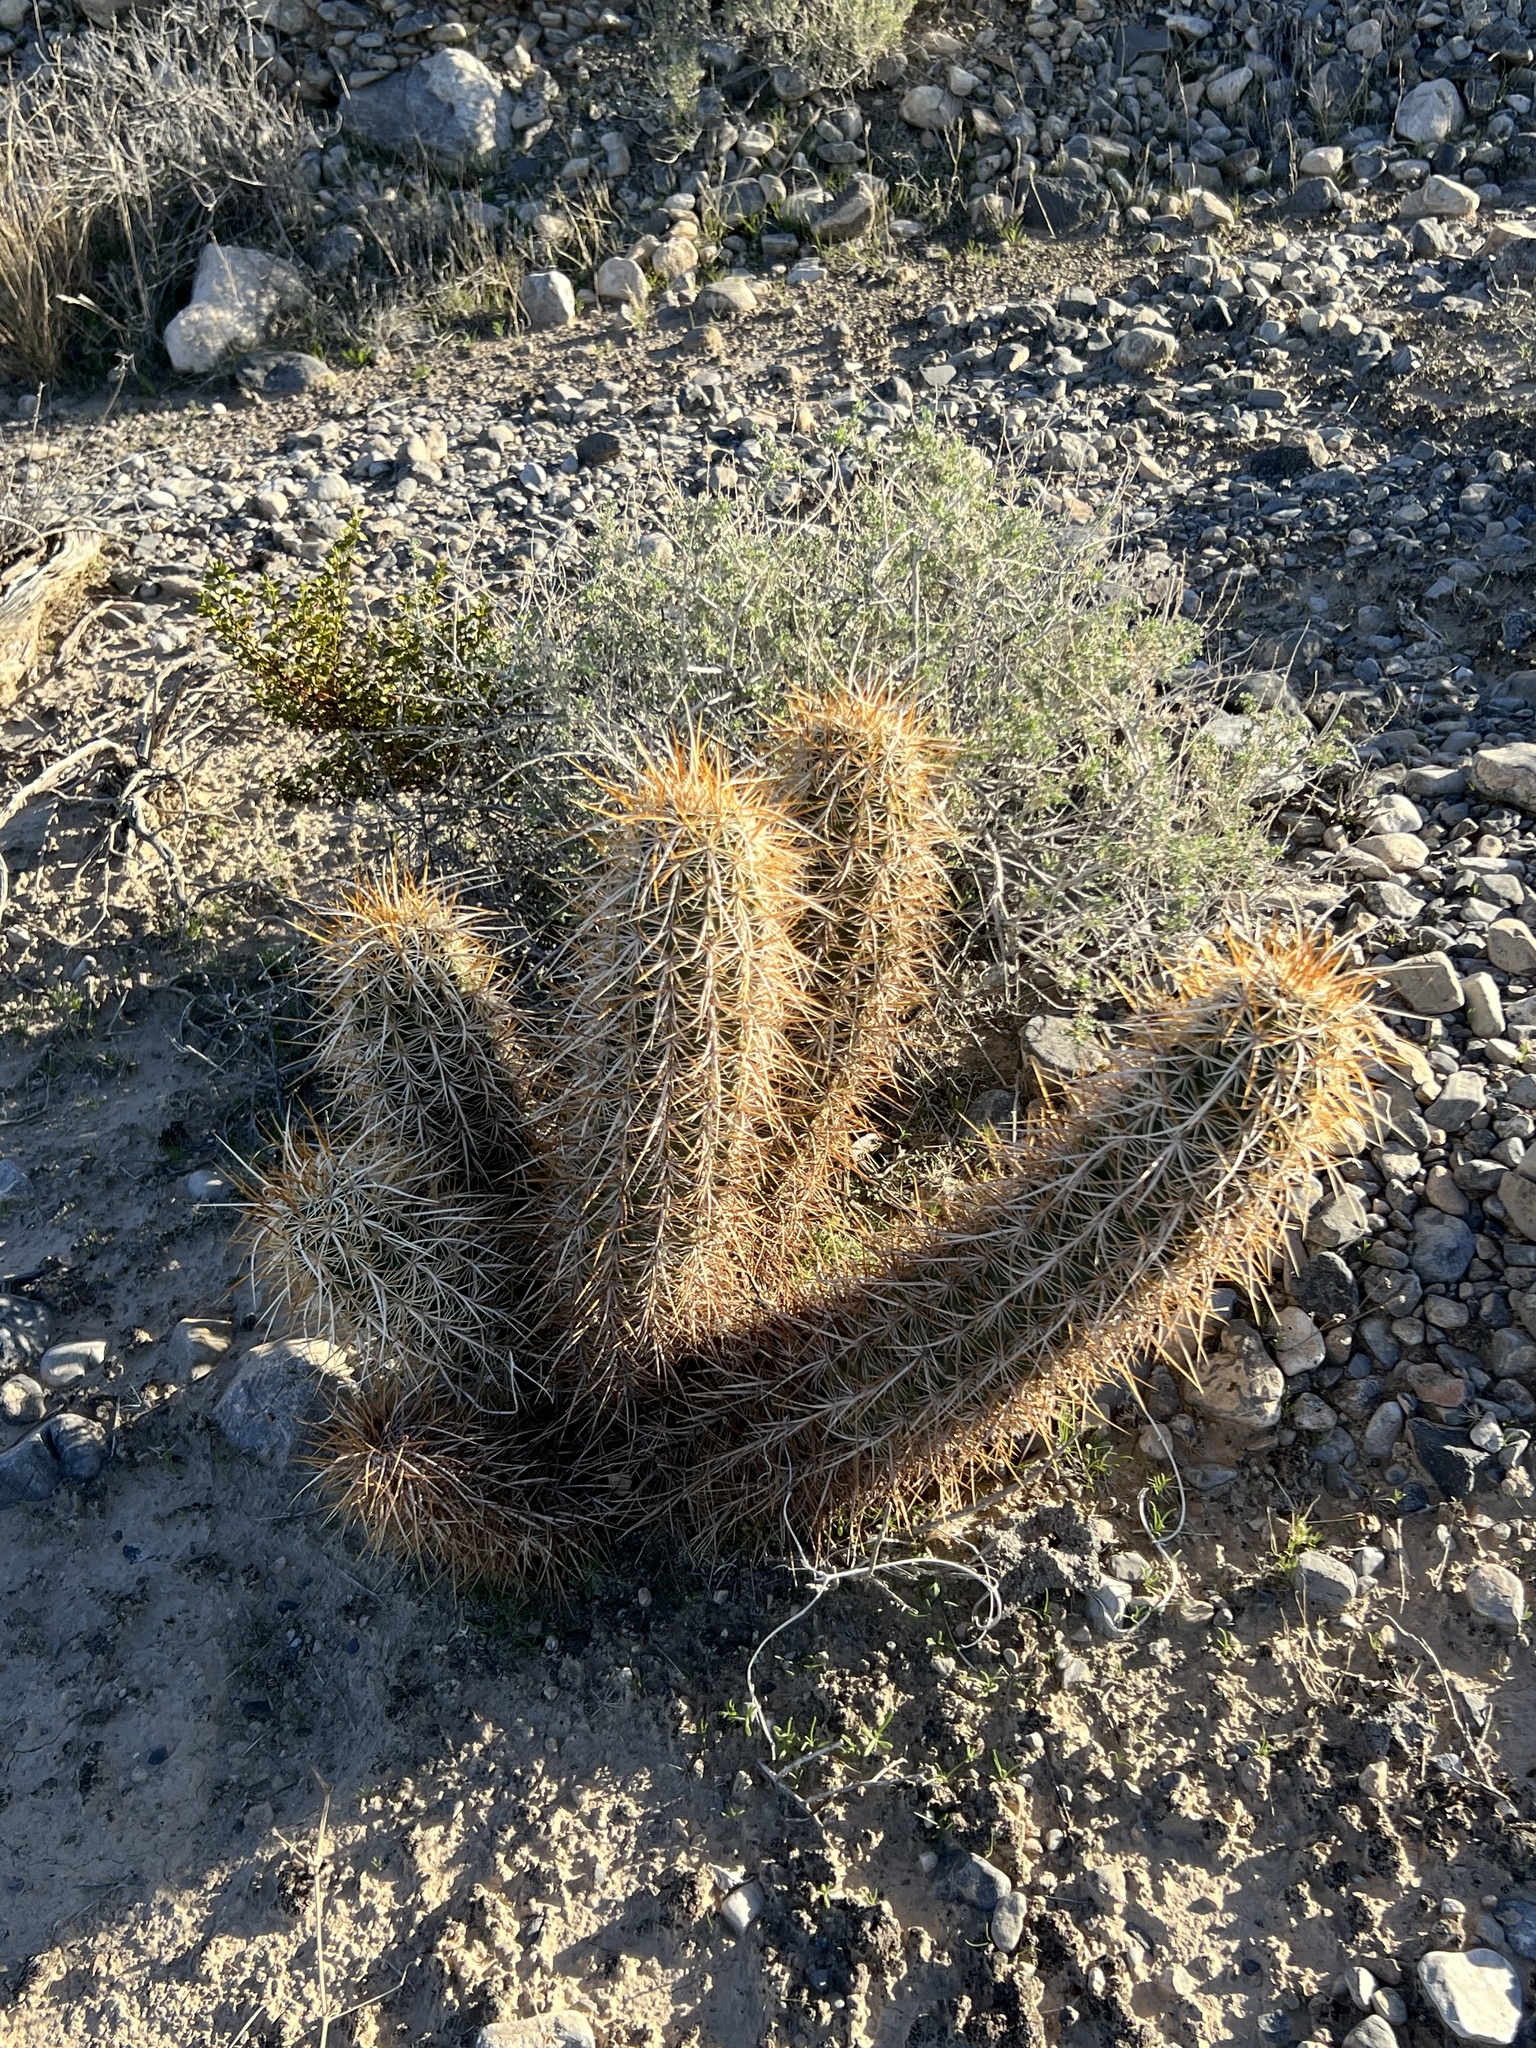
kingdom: Plantae
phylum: Tracheophyta
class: Magnoliopsida
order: Caryophyllales
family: Cactaceae
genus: Echinocereus
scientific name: Echinocereus engelmannii
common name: Engelmann's hedgehog cactus
